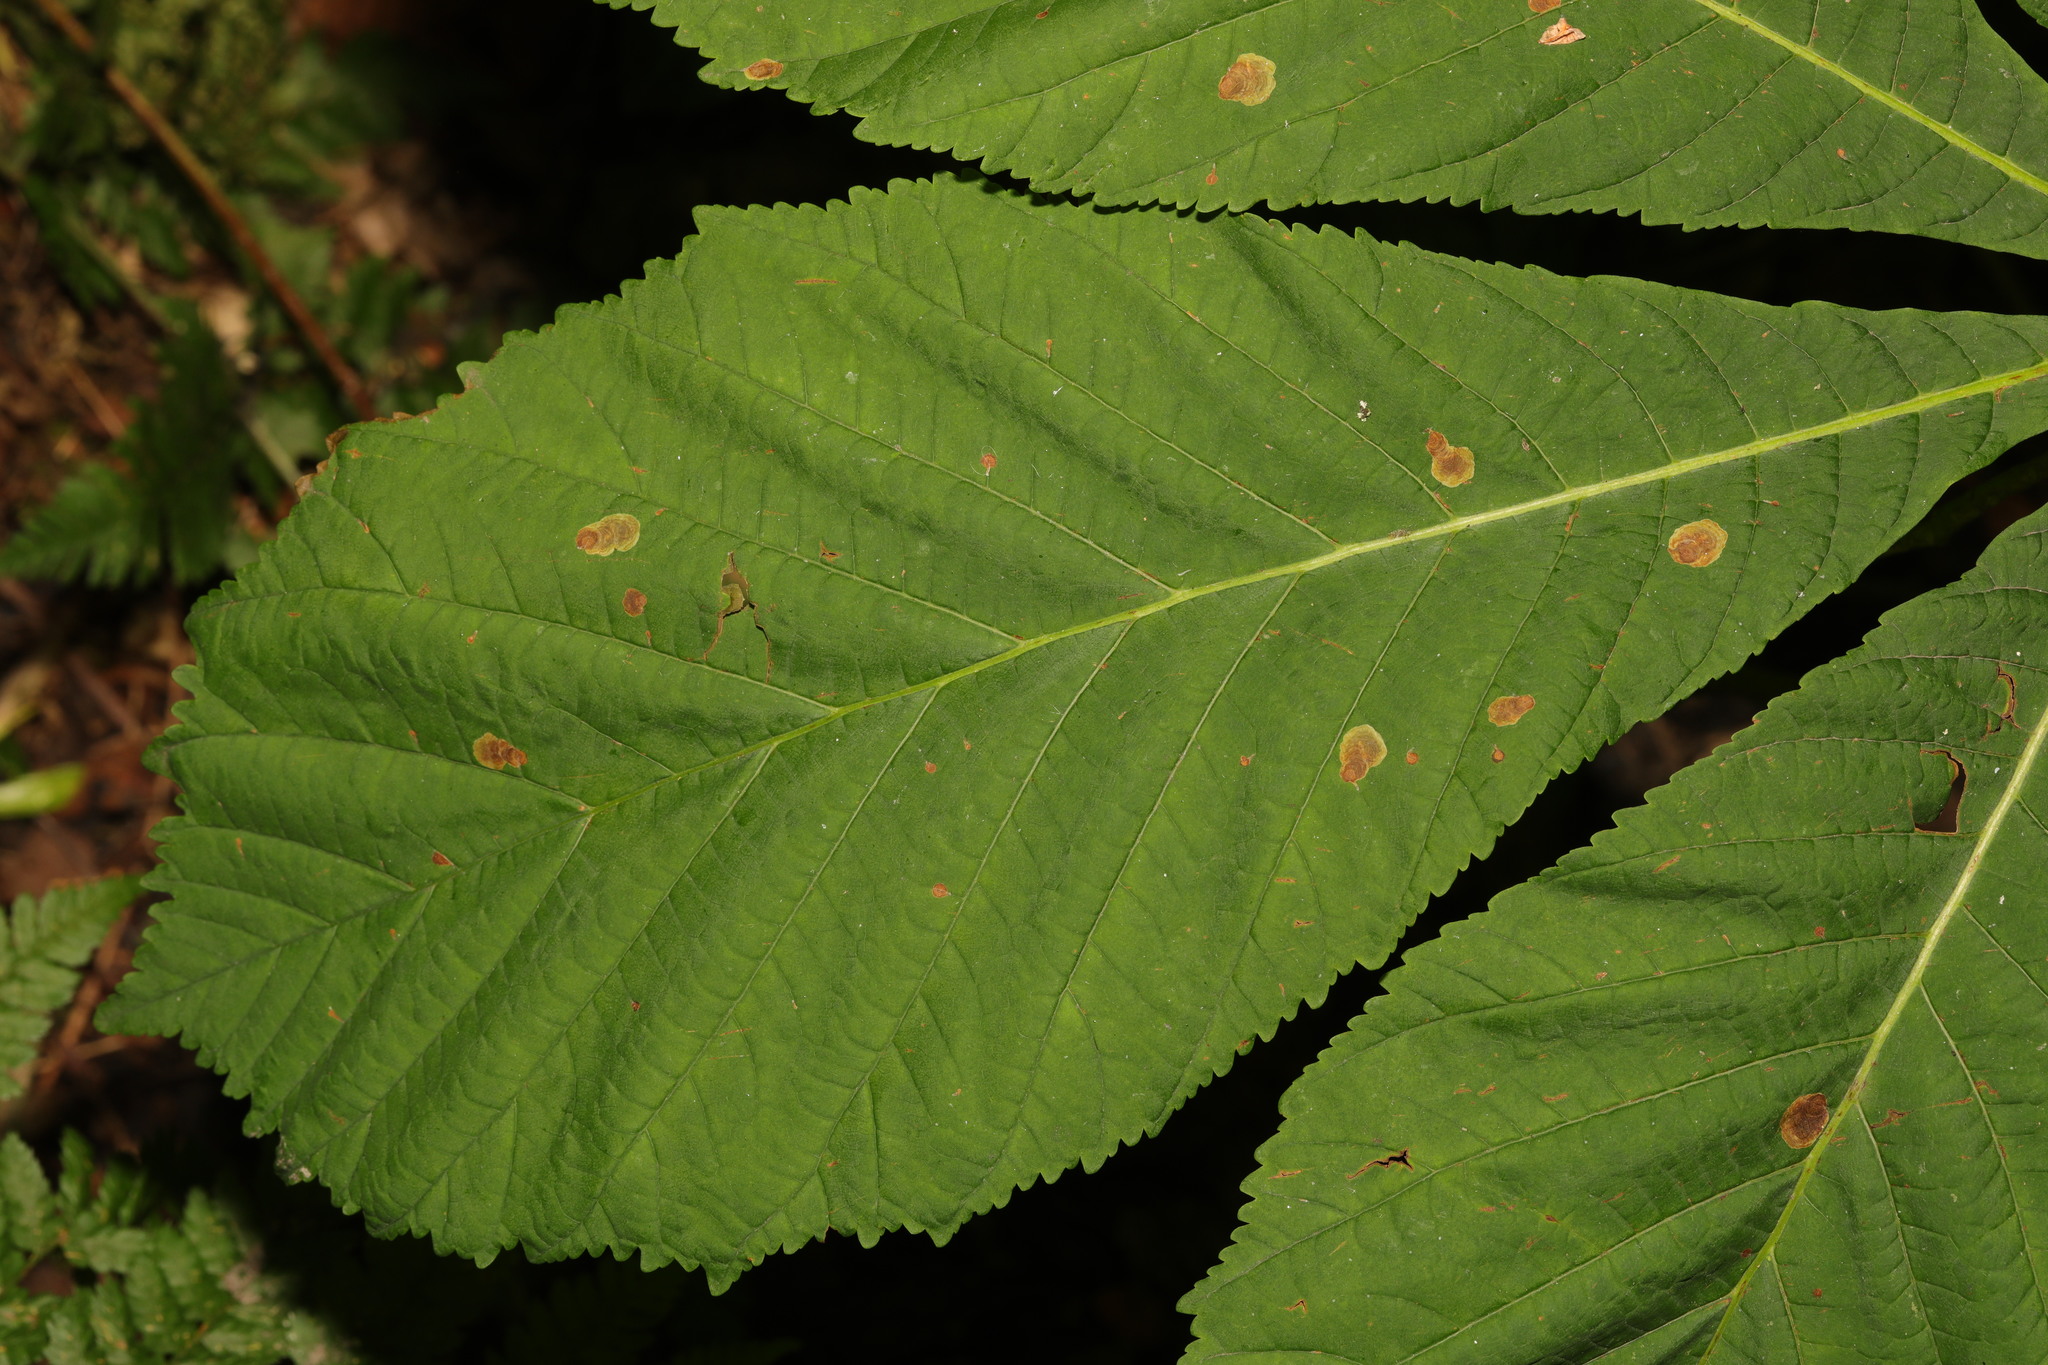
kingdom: Animalia
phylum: Arthropoda
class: Insecta
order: Lepidoptera
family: Gracillariidae
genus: Cameraria
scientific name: Cameraria ohridella
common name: Horse-chestnut leaf-miner
